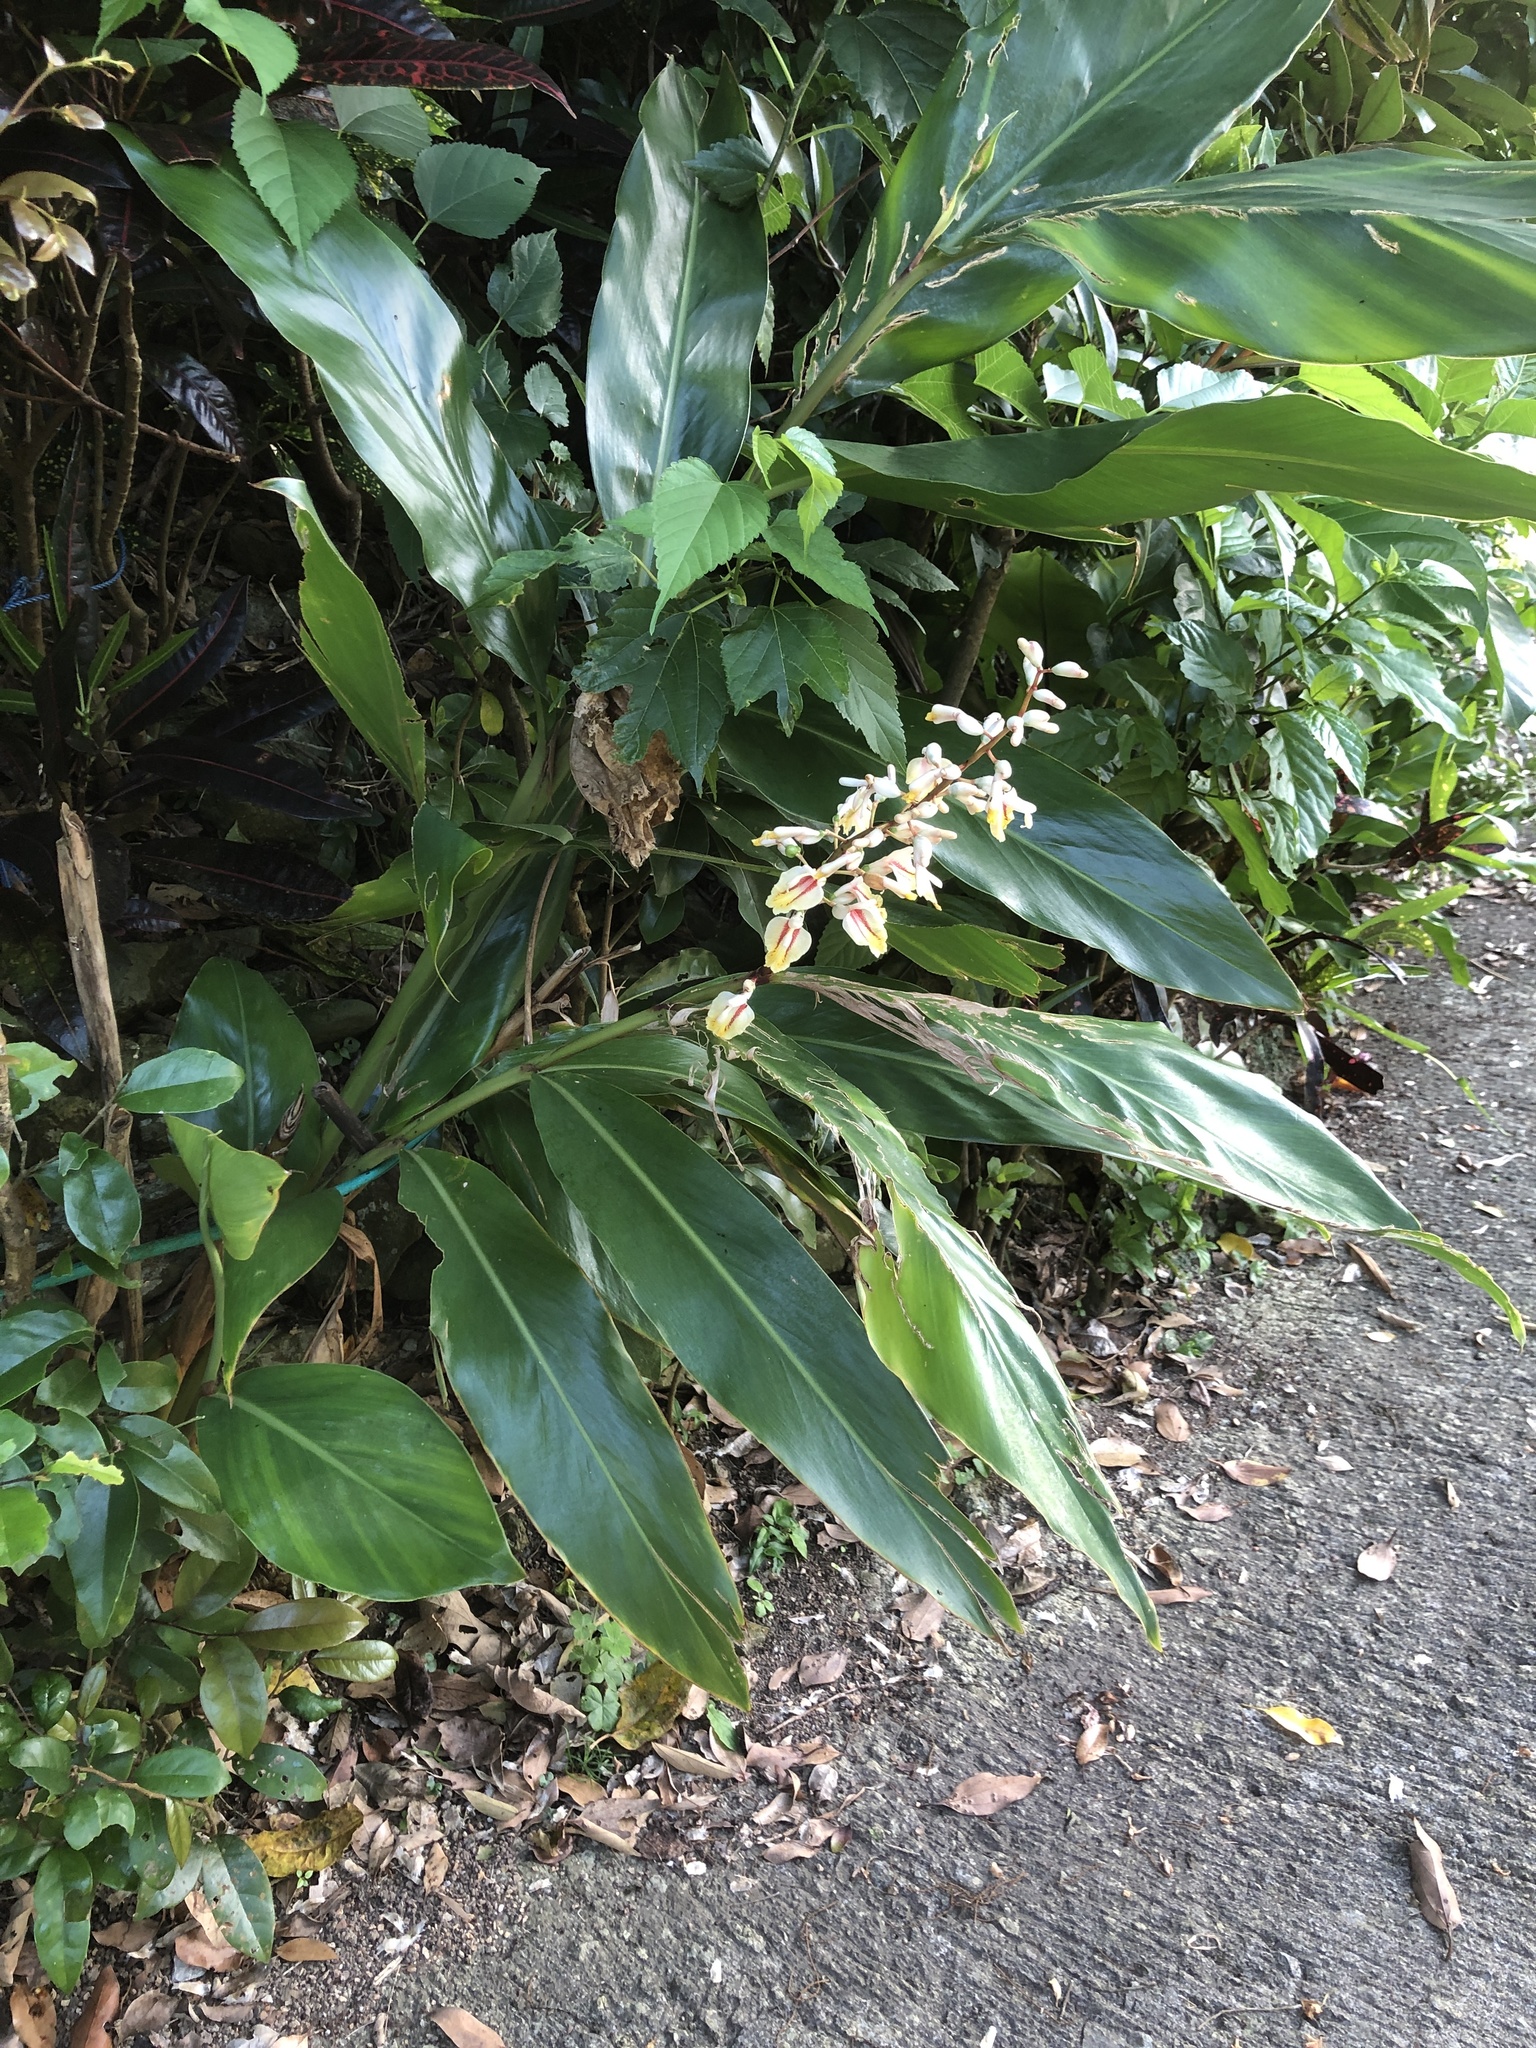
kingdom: Plantae
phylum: Tracheophyta
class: Liliopsida
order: Zingiberales
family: Zingiberaceae
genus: Alpinia
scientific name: Alpinia formosana
